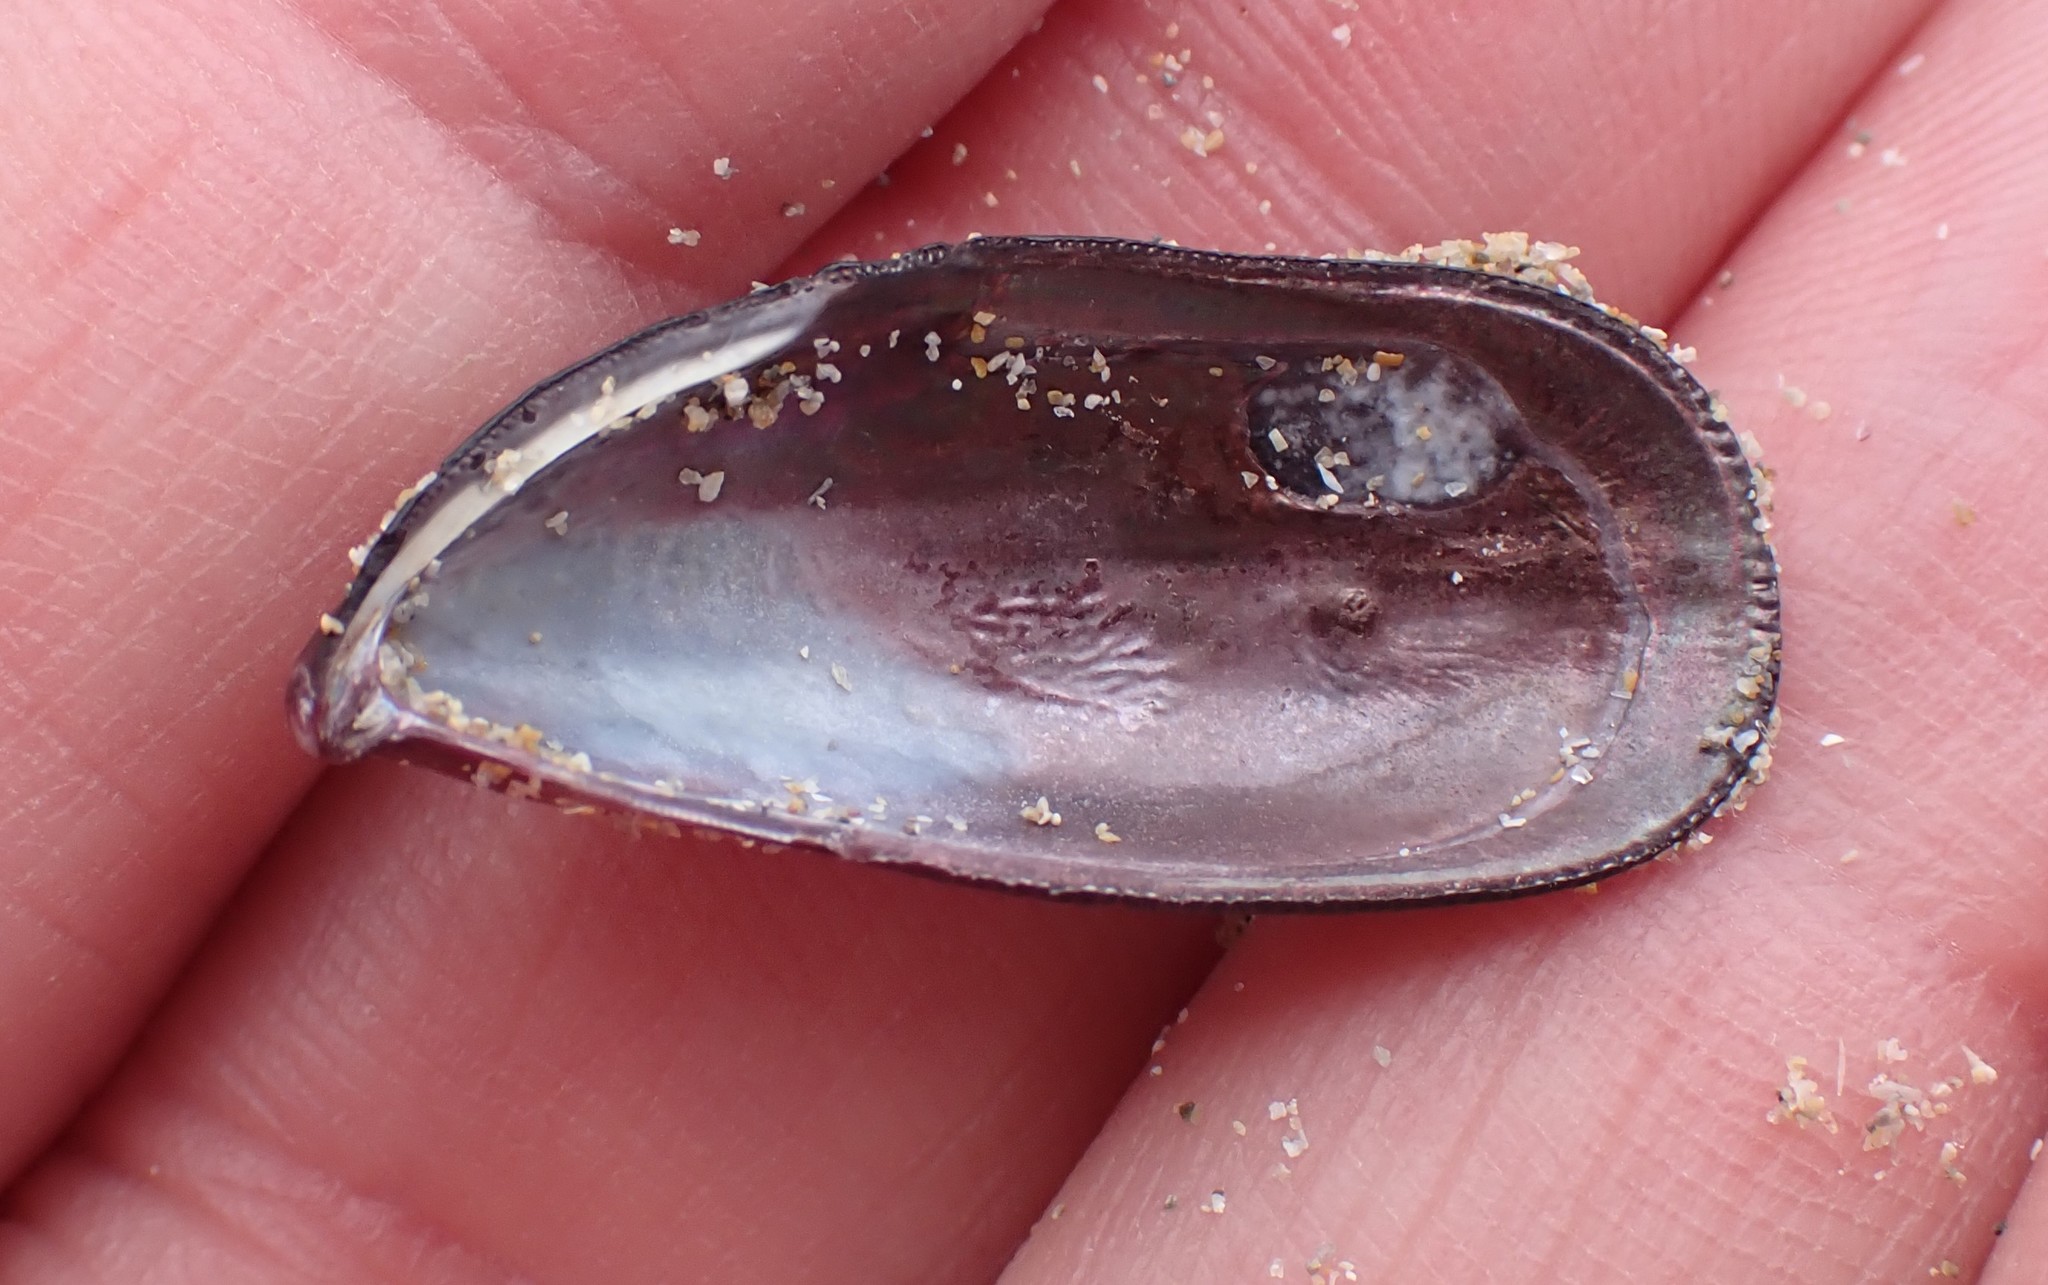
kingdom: Animalia
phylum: Mollusca
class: Bivalvia
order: Mytilida
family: Mytilidae
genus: Brachidontes
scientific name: Brachidontes rostratus
